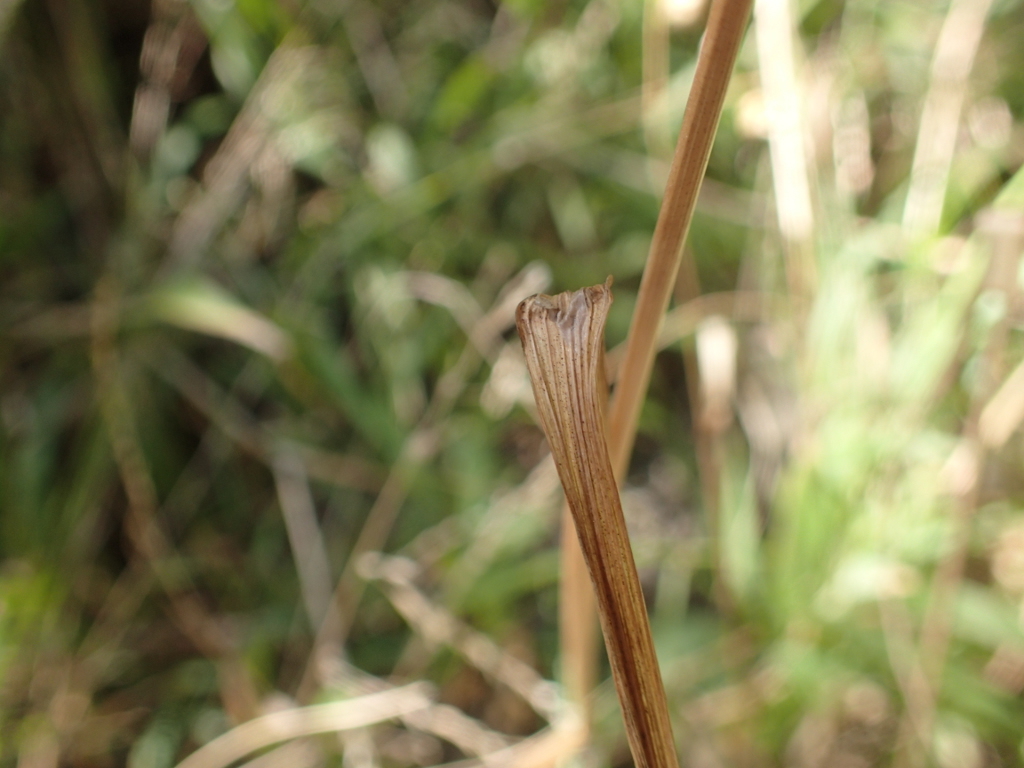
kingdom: Plantae
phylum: Tracheophyta
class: Liliopsida
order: Poales
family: Poaceae
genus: Briza
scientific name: Briza maxima
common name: Big quakinggrass
